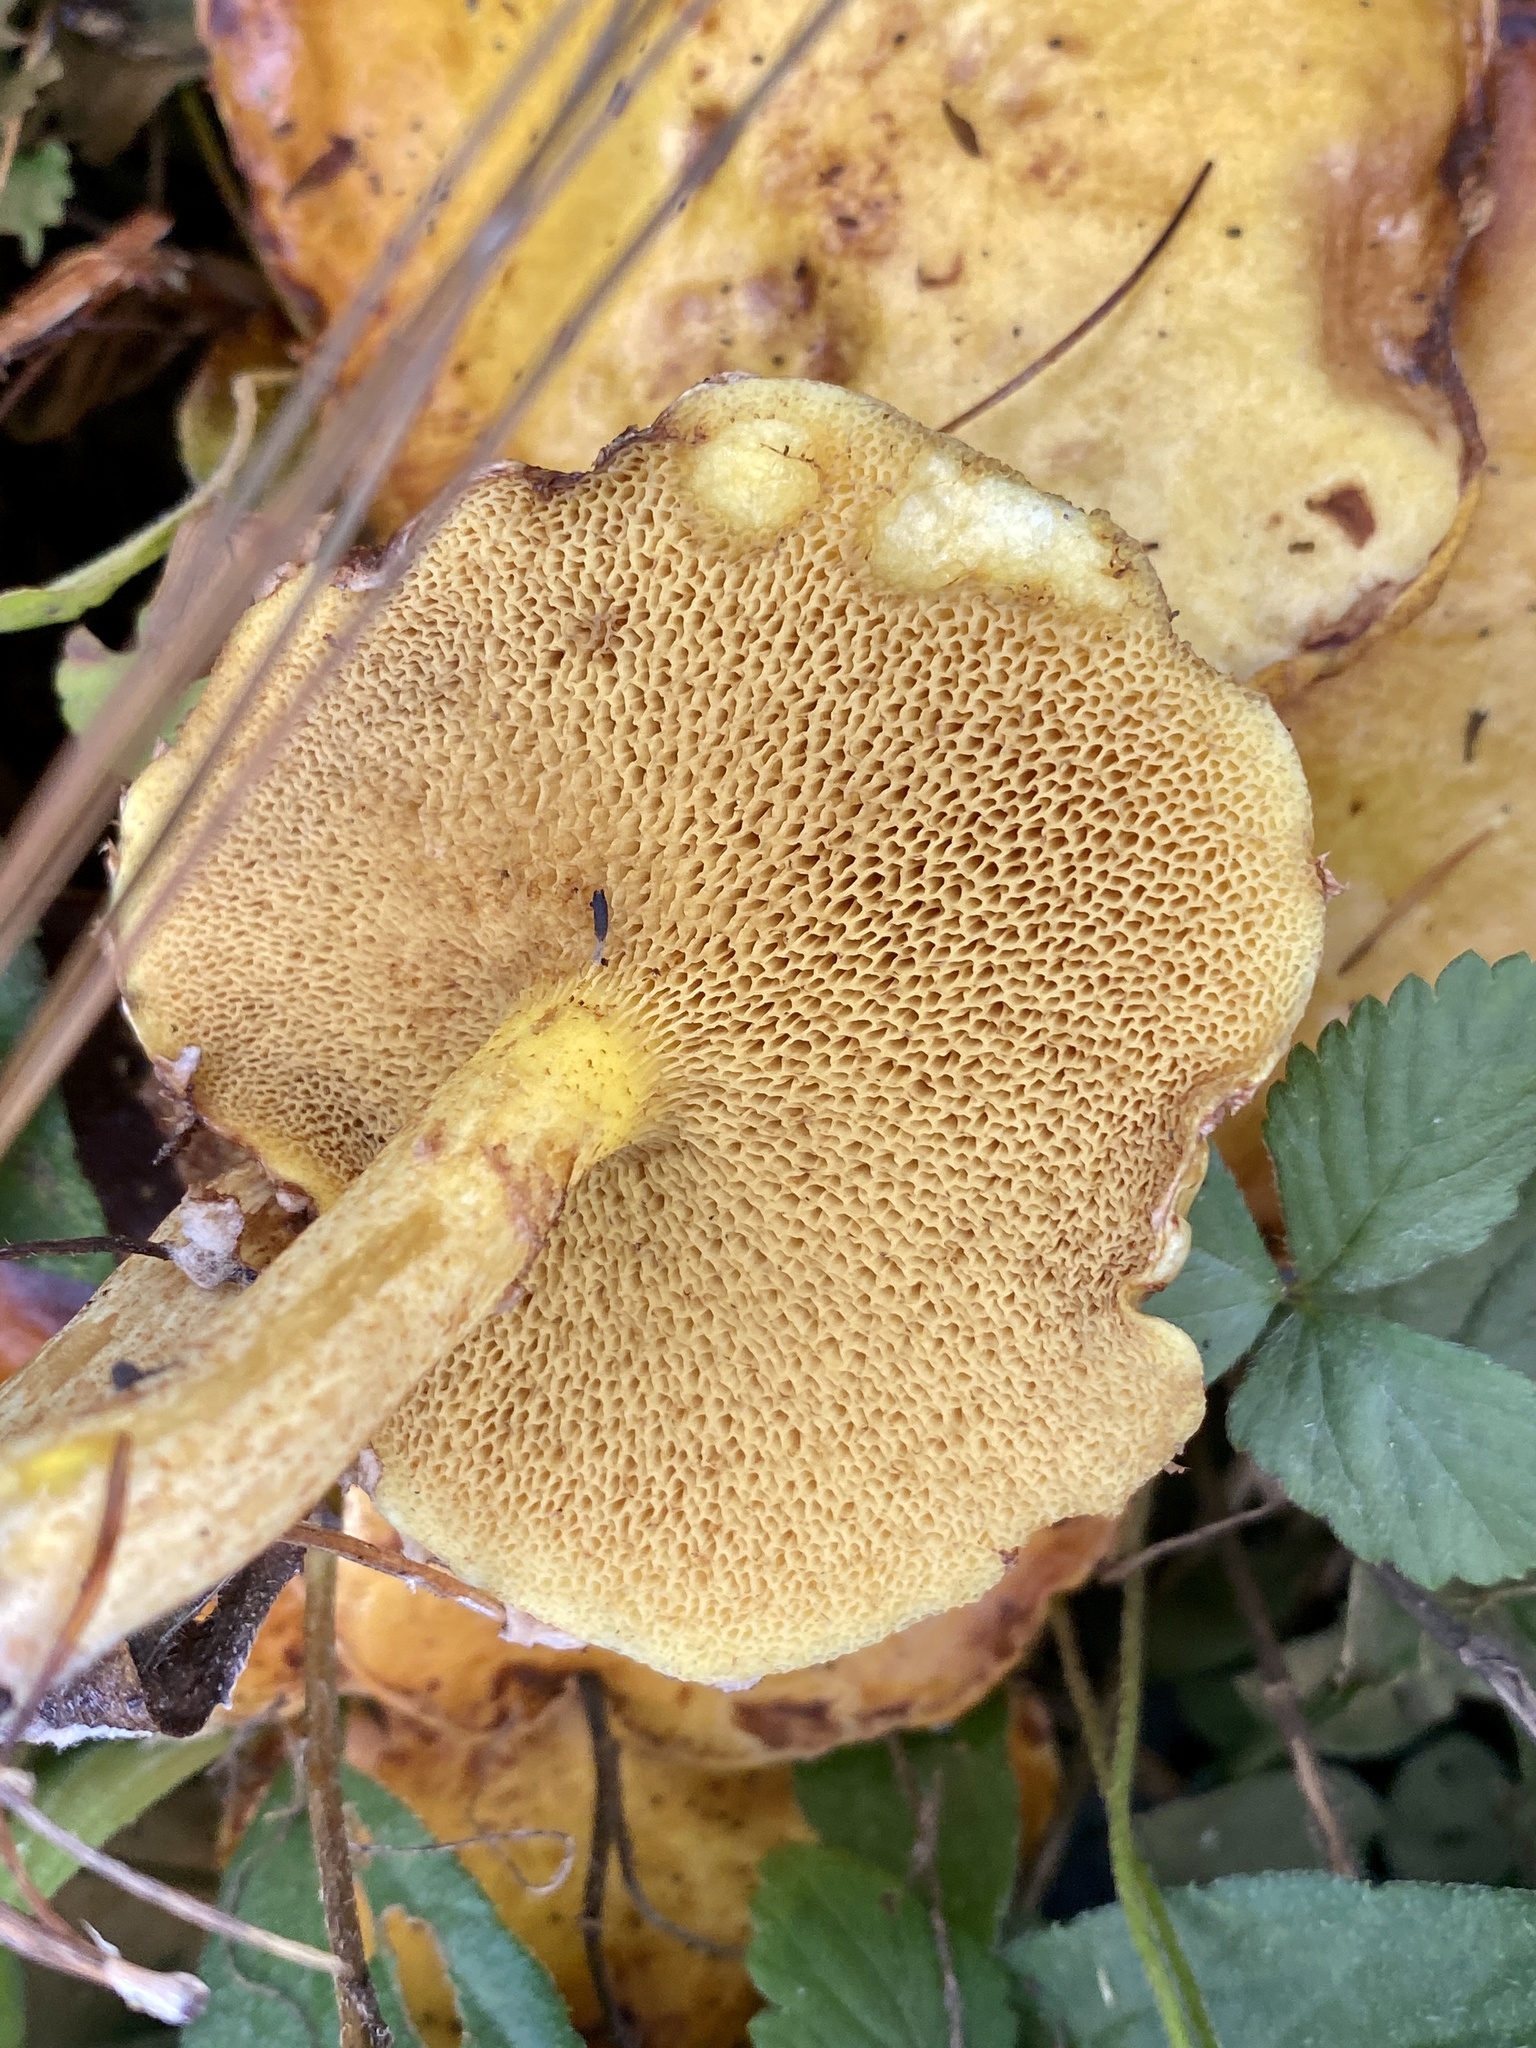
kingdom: Fungi
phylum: Basidiomycota
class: Agaricomycetes
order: Boletales
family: Suillaceae
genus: Suillus
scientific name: Suillus americanus
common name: Chicken fat mushroom
